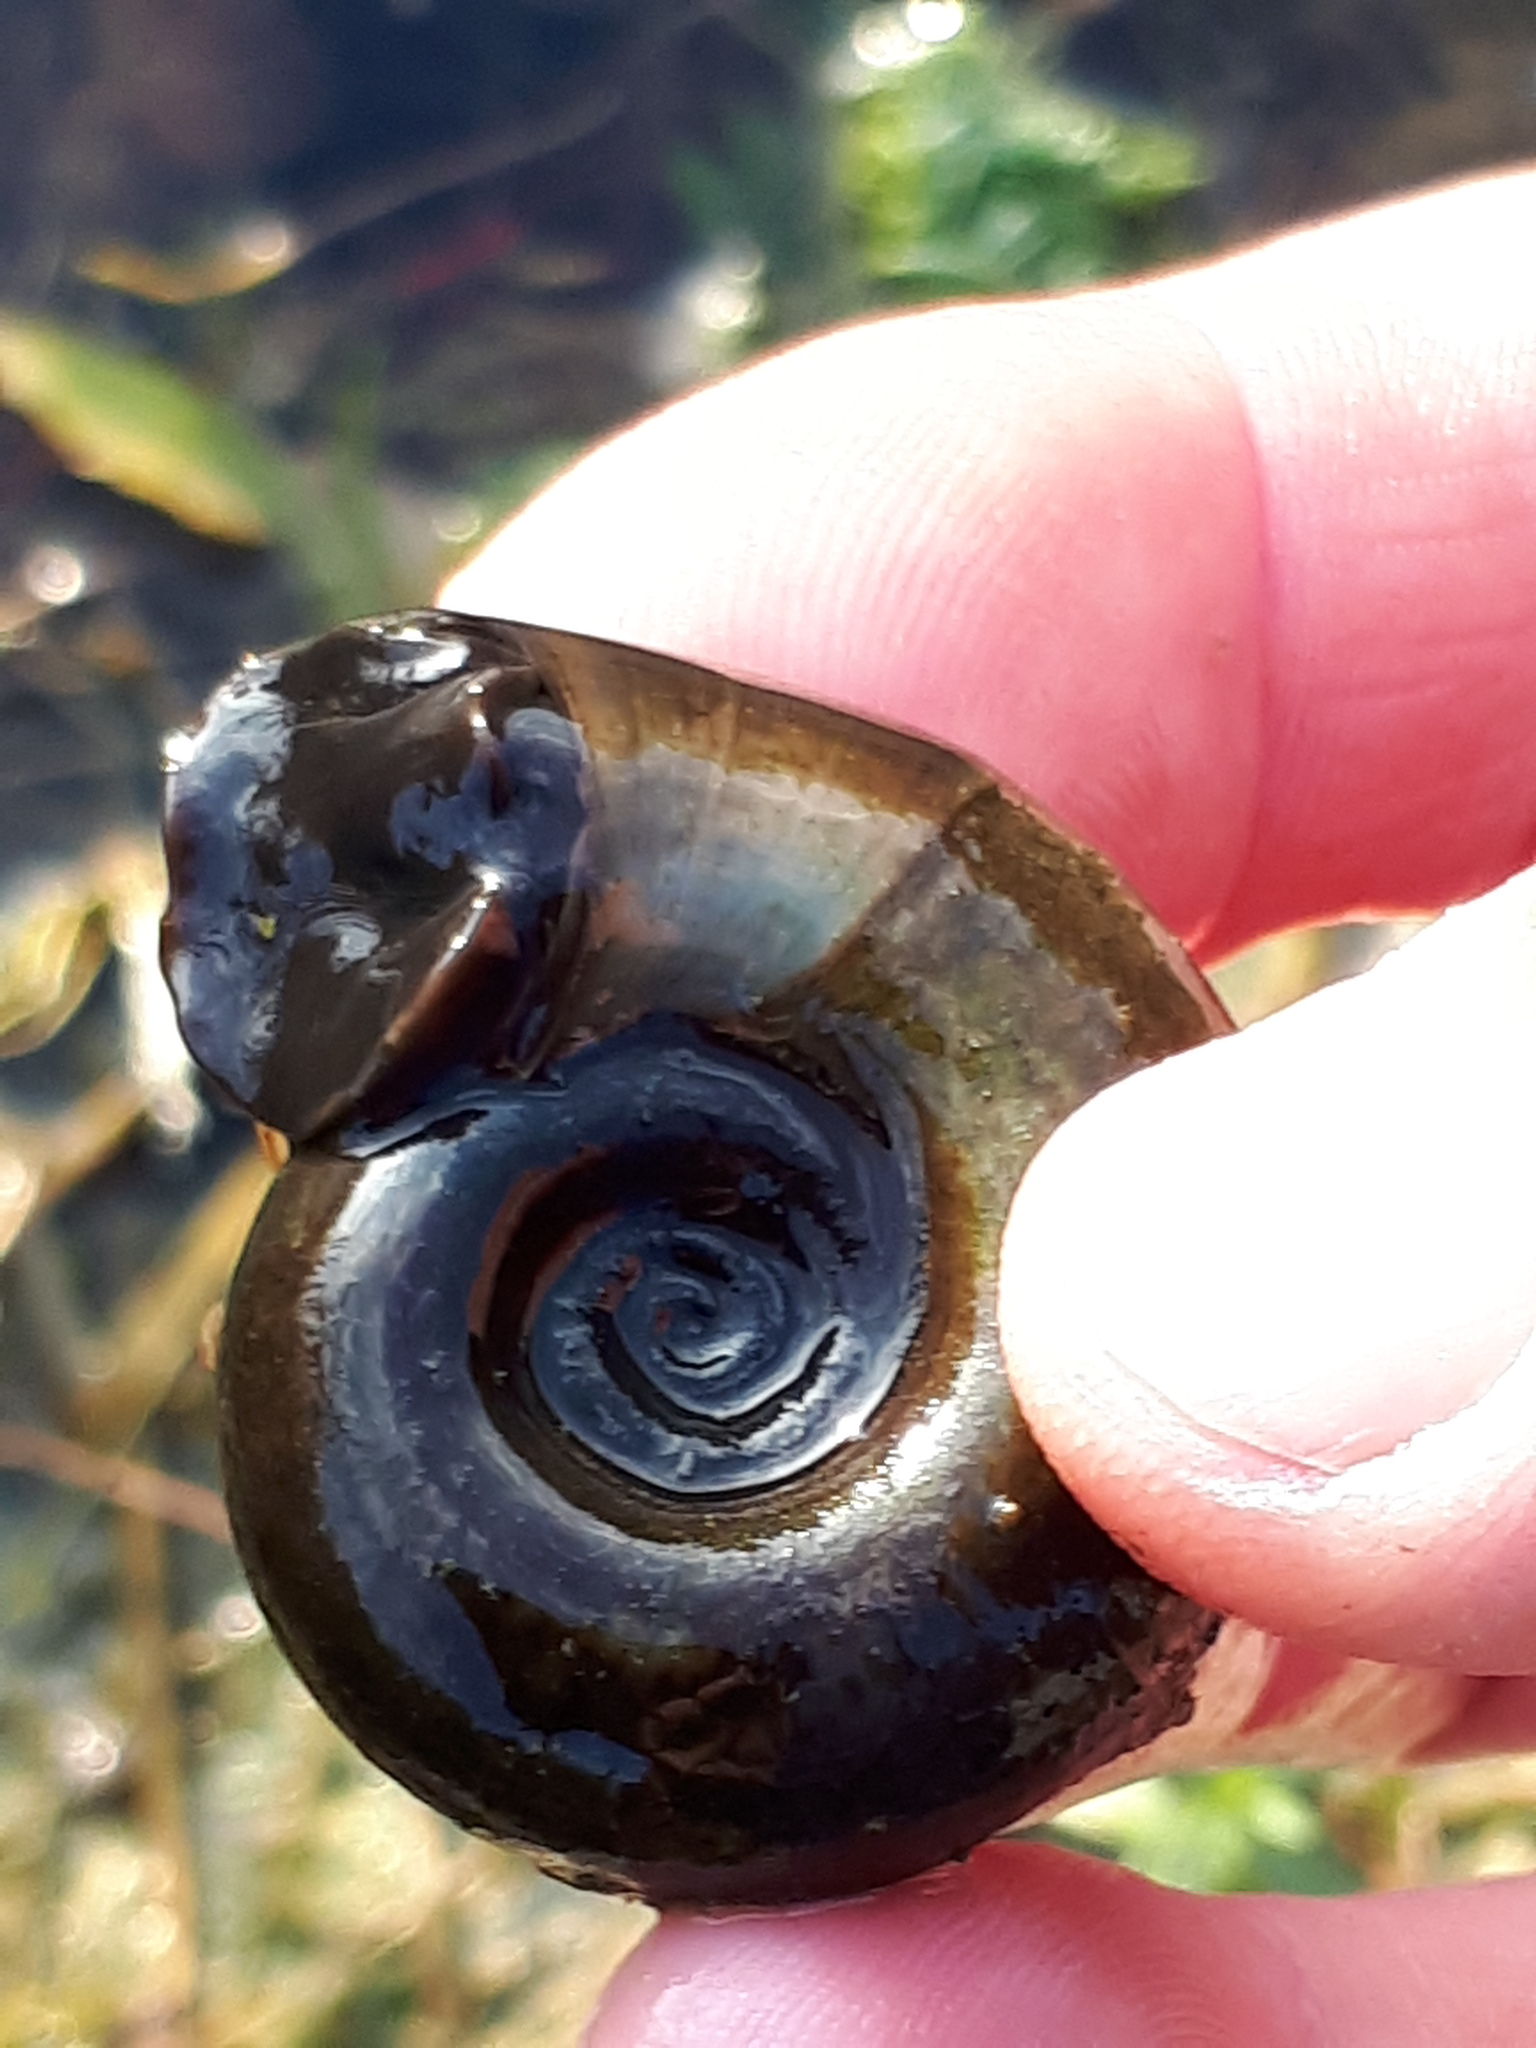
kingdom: Animalia
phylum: Mollusca
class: Gastropoda
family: Planorbidae
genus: Planorbarius
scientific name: Planorbarius corneus
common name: Great ramshorn
